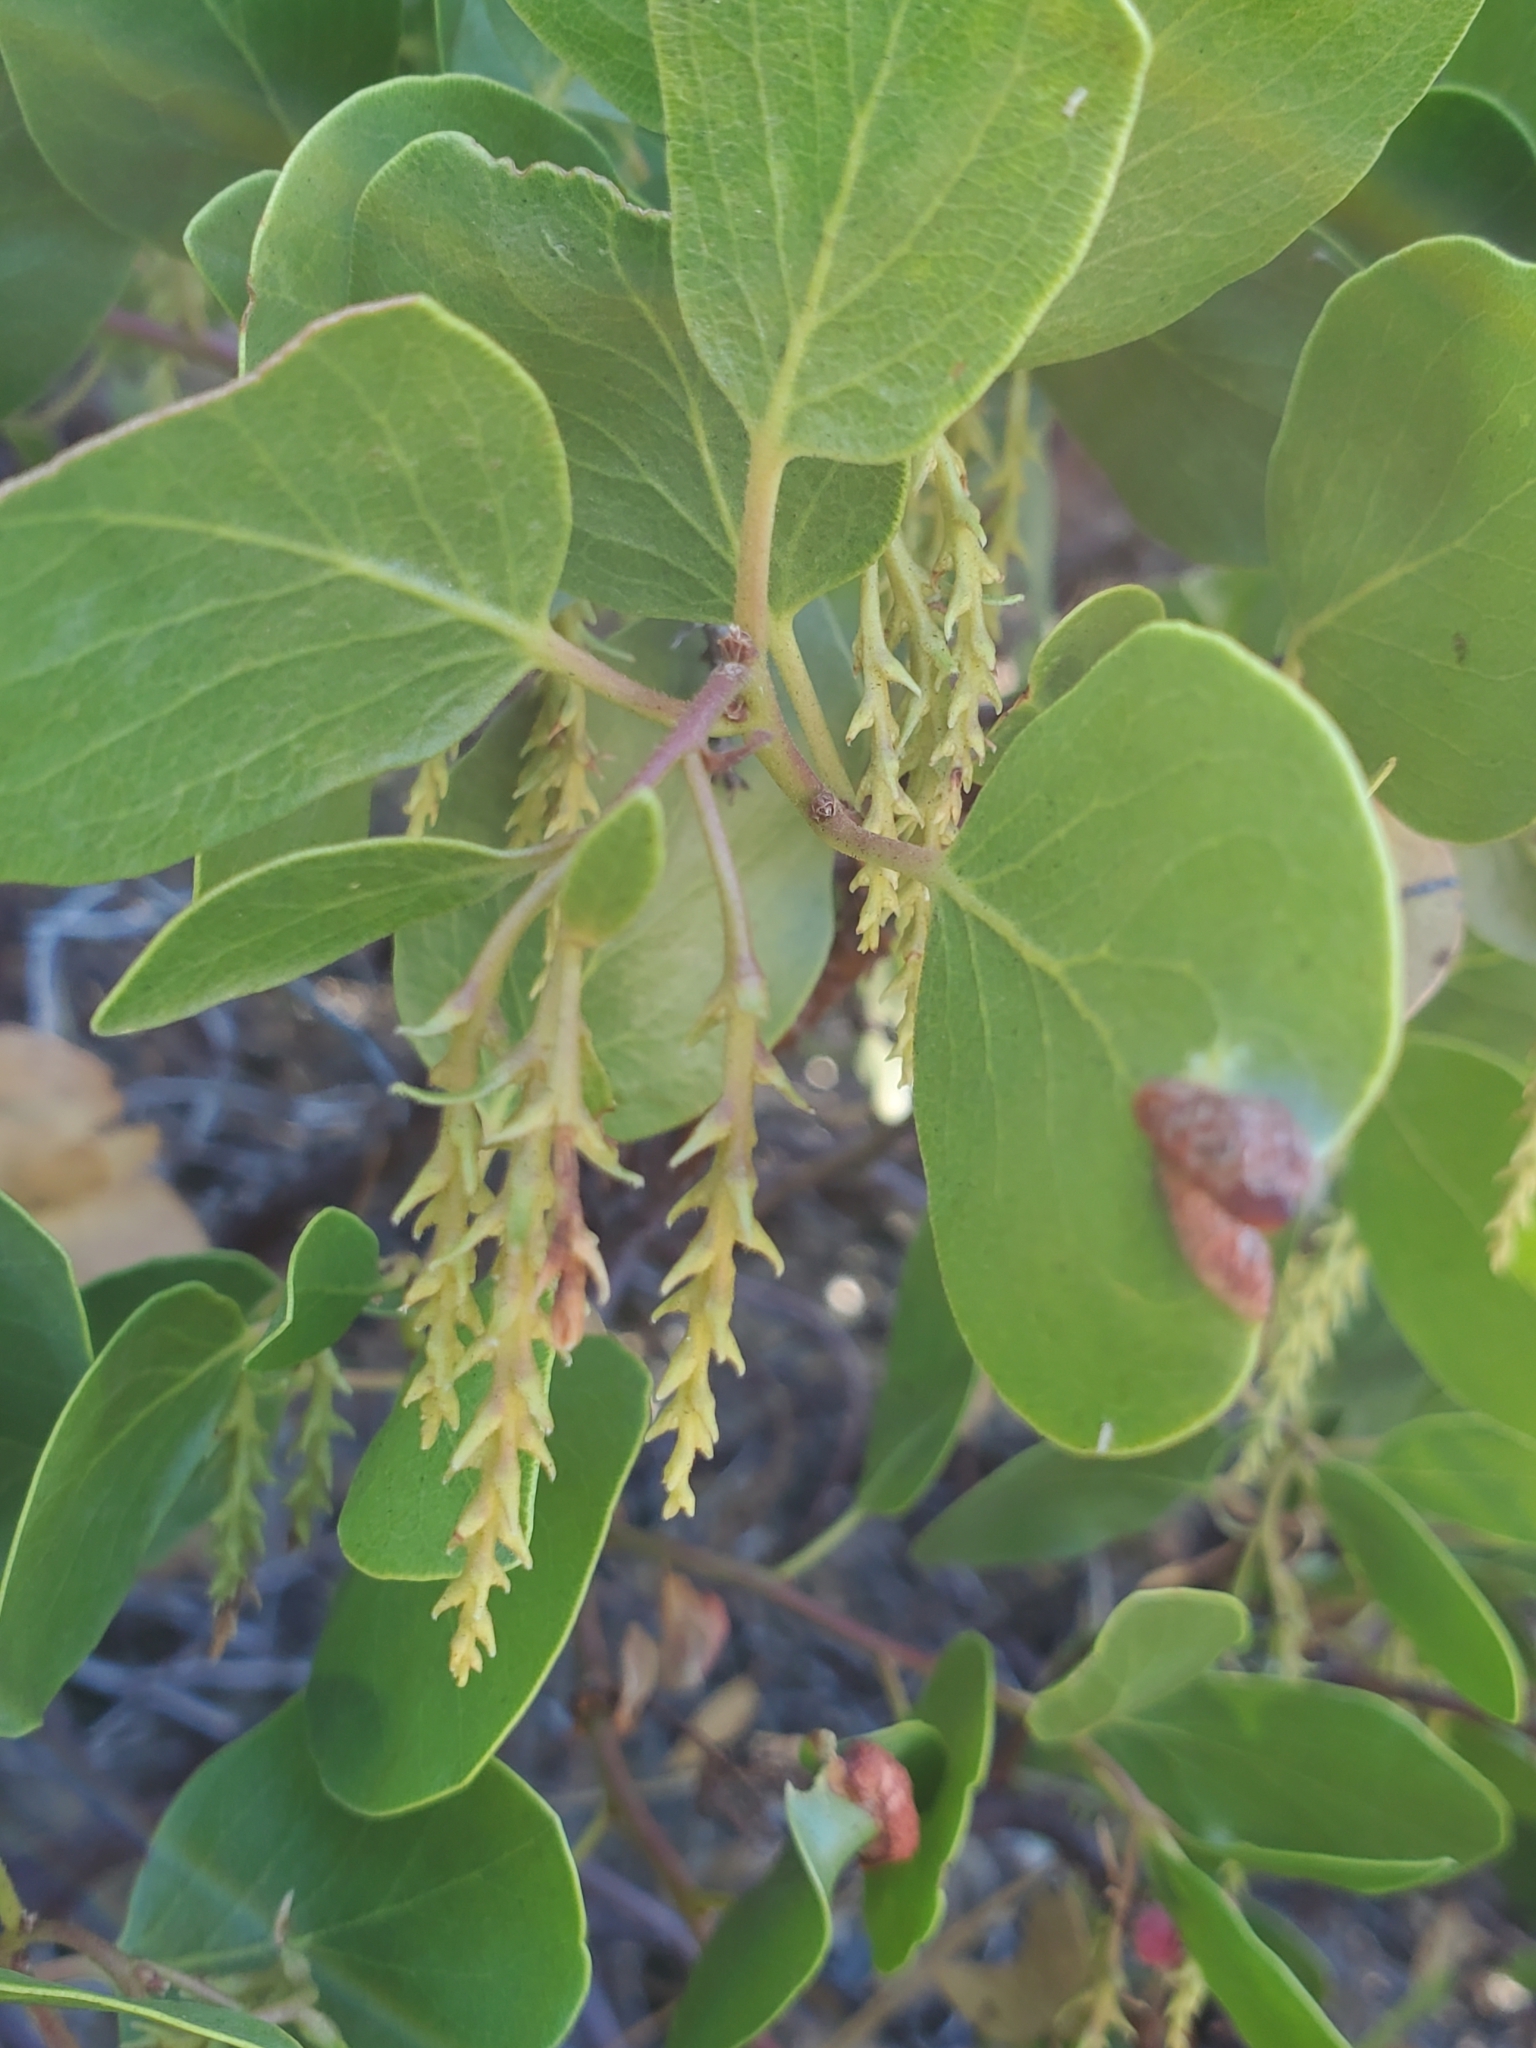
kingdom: Plantae
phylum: Tracheophyta
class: Magnoliopsida
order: Ericales
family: Ericaceae
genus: Arctostaphylos
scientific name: Arctostaphylos patula
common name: Green-leaf manzanita
